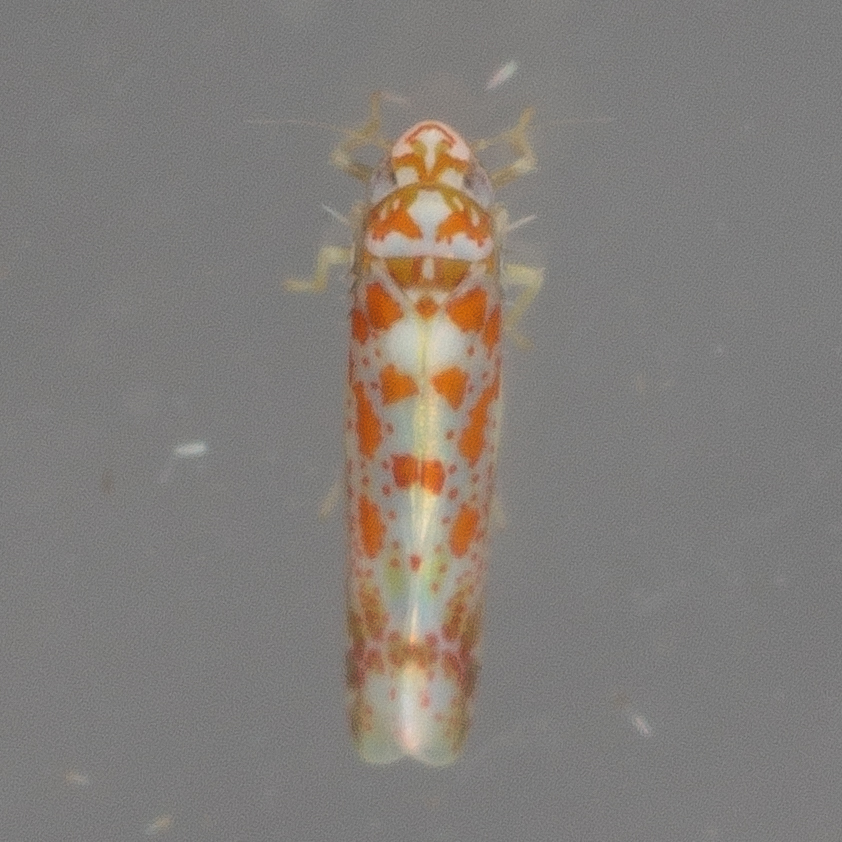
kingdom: Animalia
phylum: Arthropoda
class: Insecta
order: Hemiptera
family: Cicadellidae
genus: Dikrella
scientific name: Dikrella maculata
